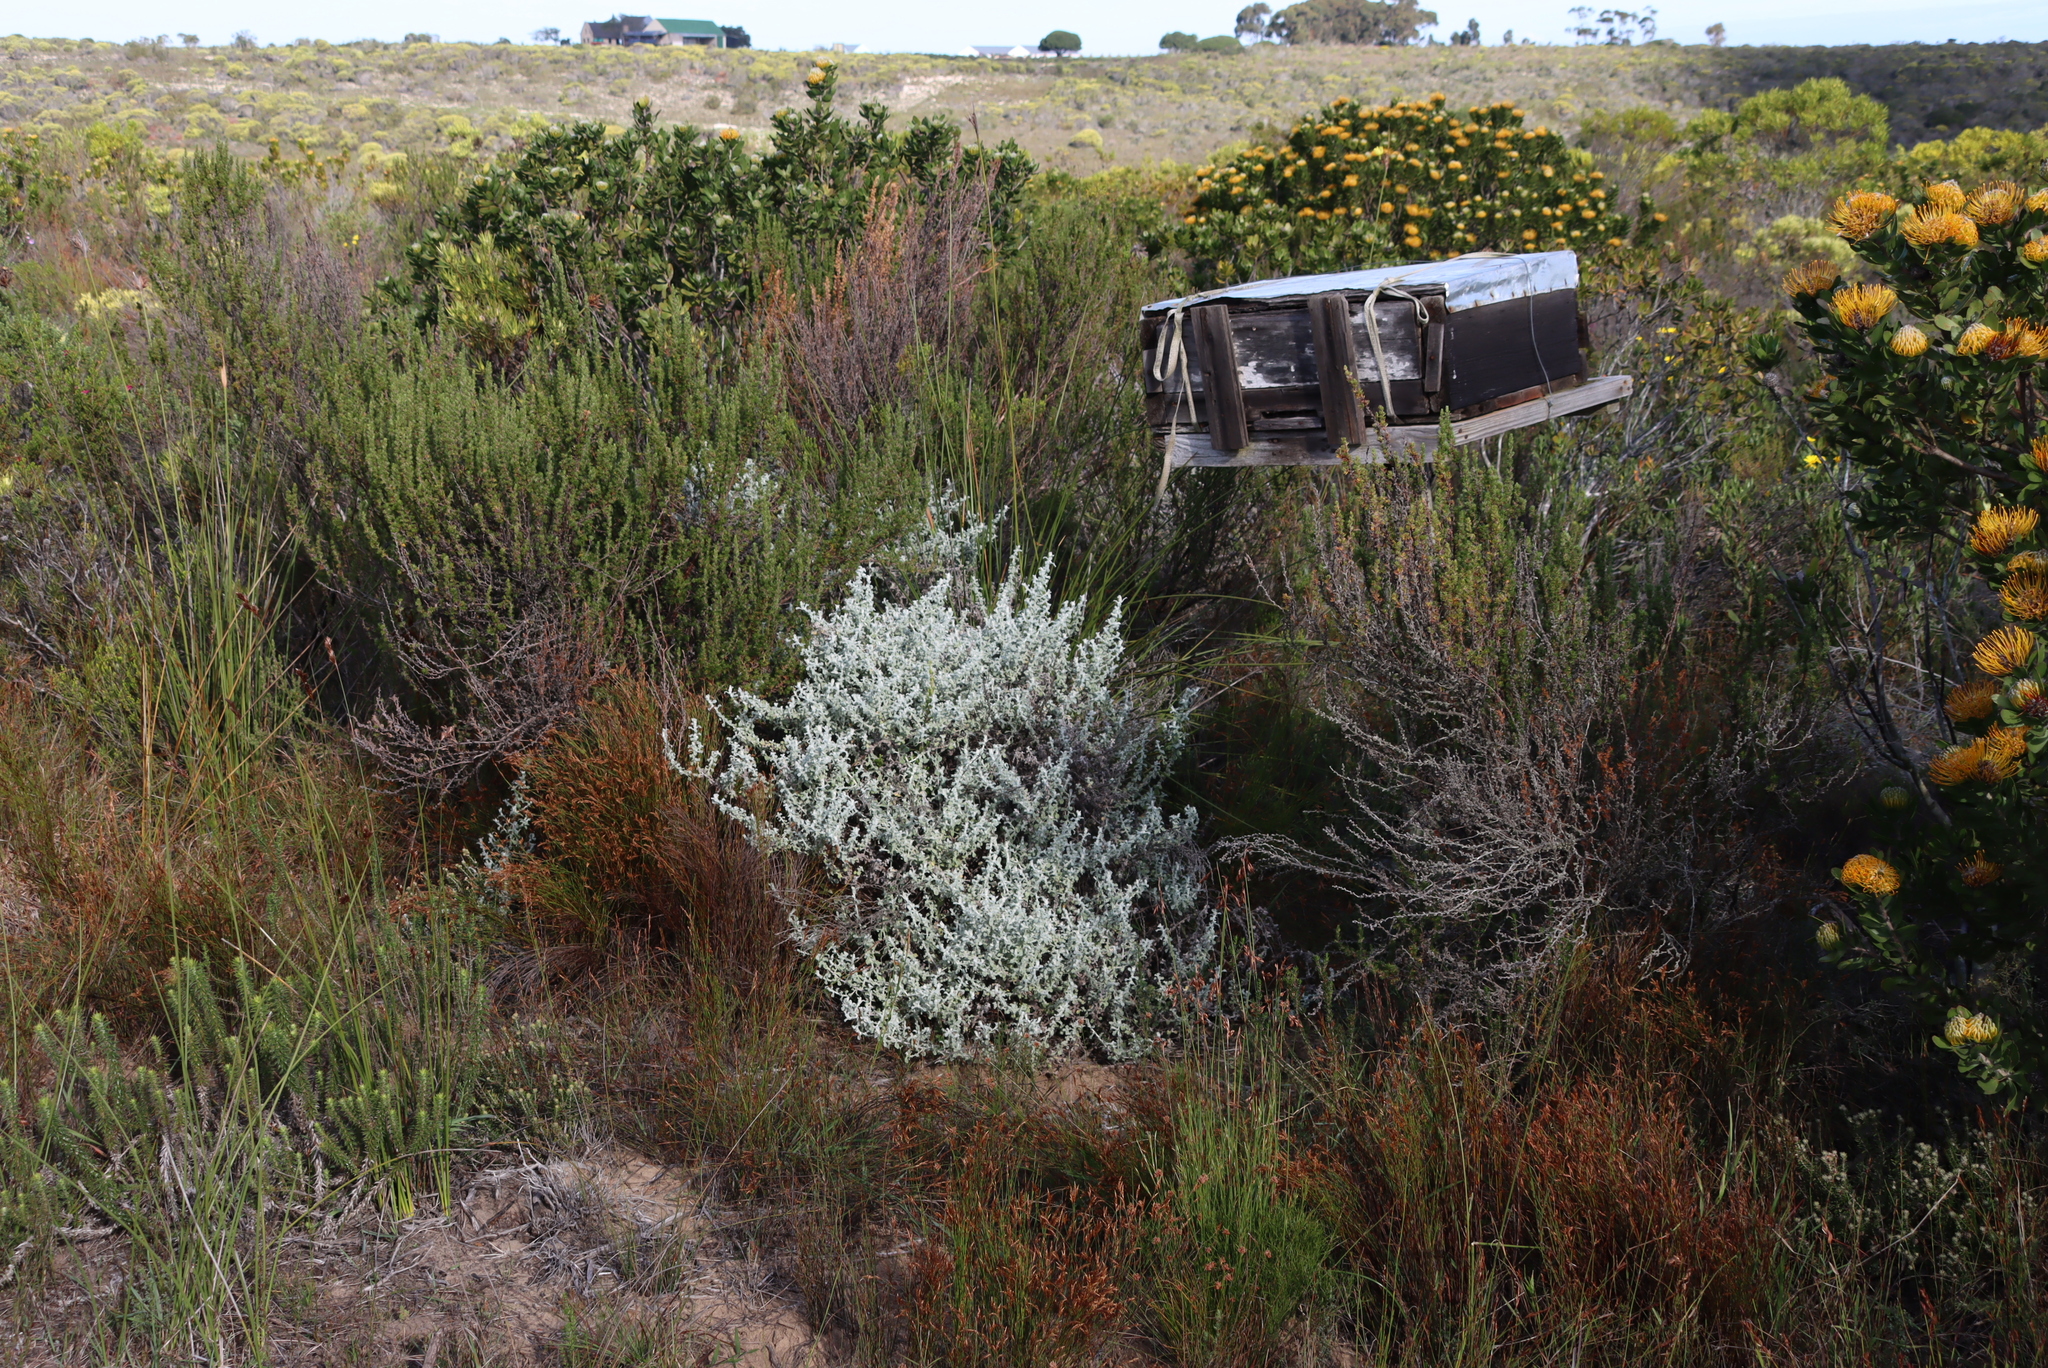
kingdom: Plantae
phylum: Tracheophyta
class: Magnoliopsida
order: Asterales
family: Asteraceae
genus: Helichrysum
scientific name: Helichrysum patulum
